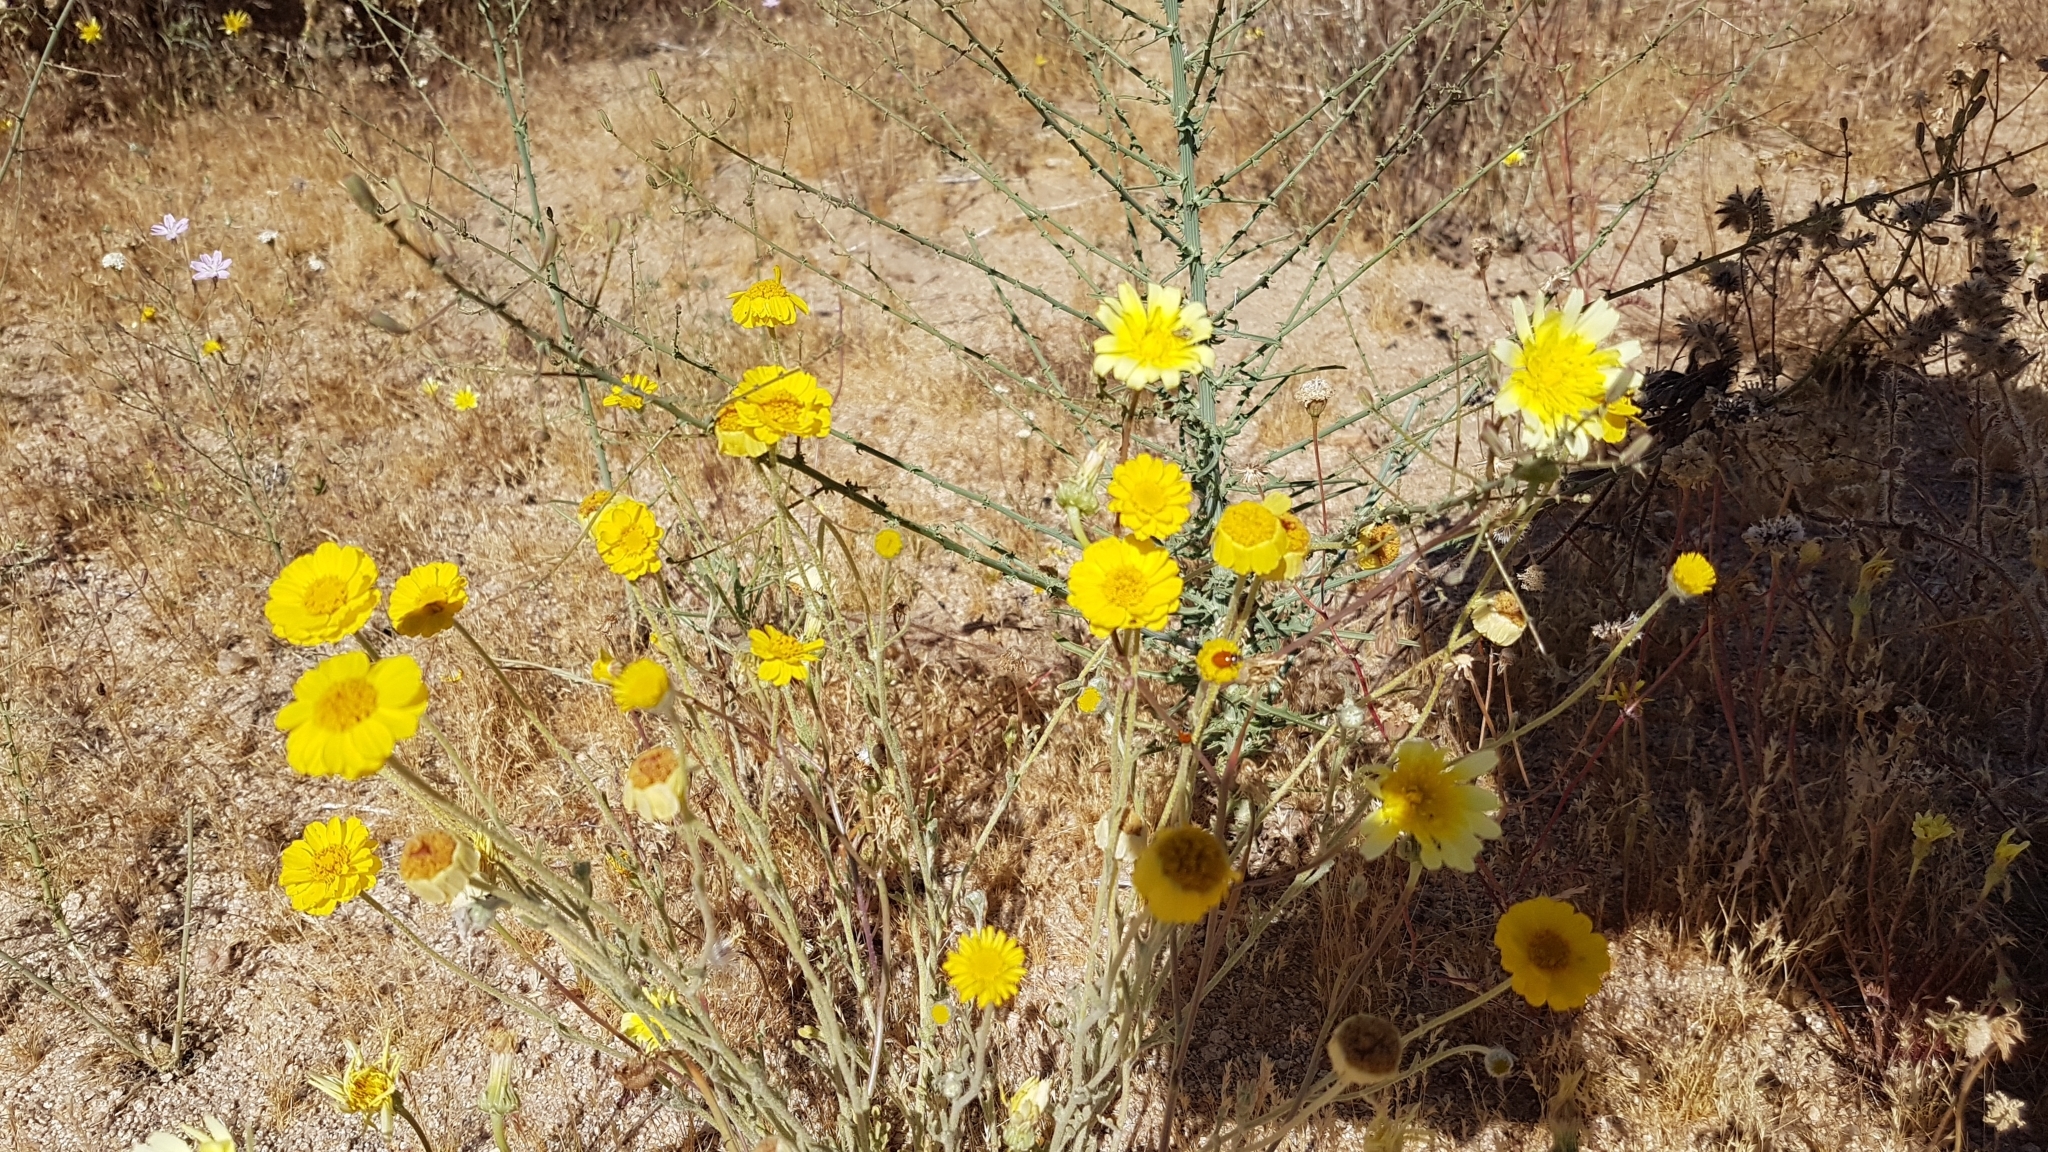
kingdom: Plantae
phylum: Tracheophyta
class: Magnoliopsida
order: Asterales
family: Asteraceae
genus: Baileya
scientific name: Baileya multiradiata
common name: Desert-marigold
